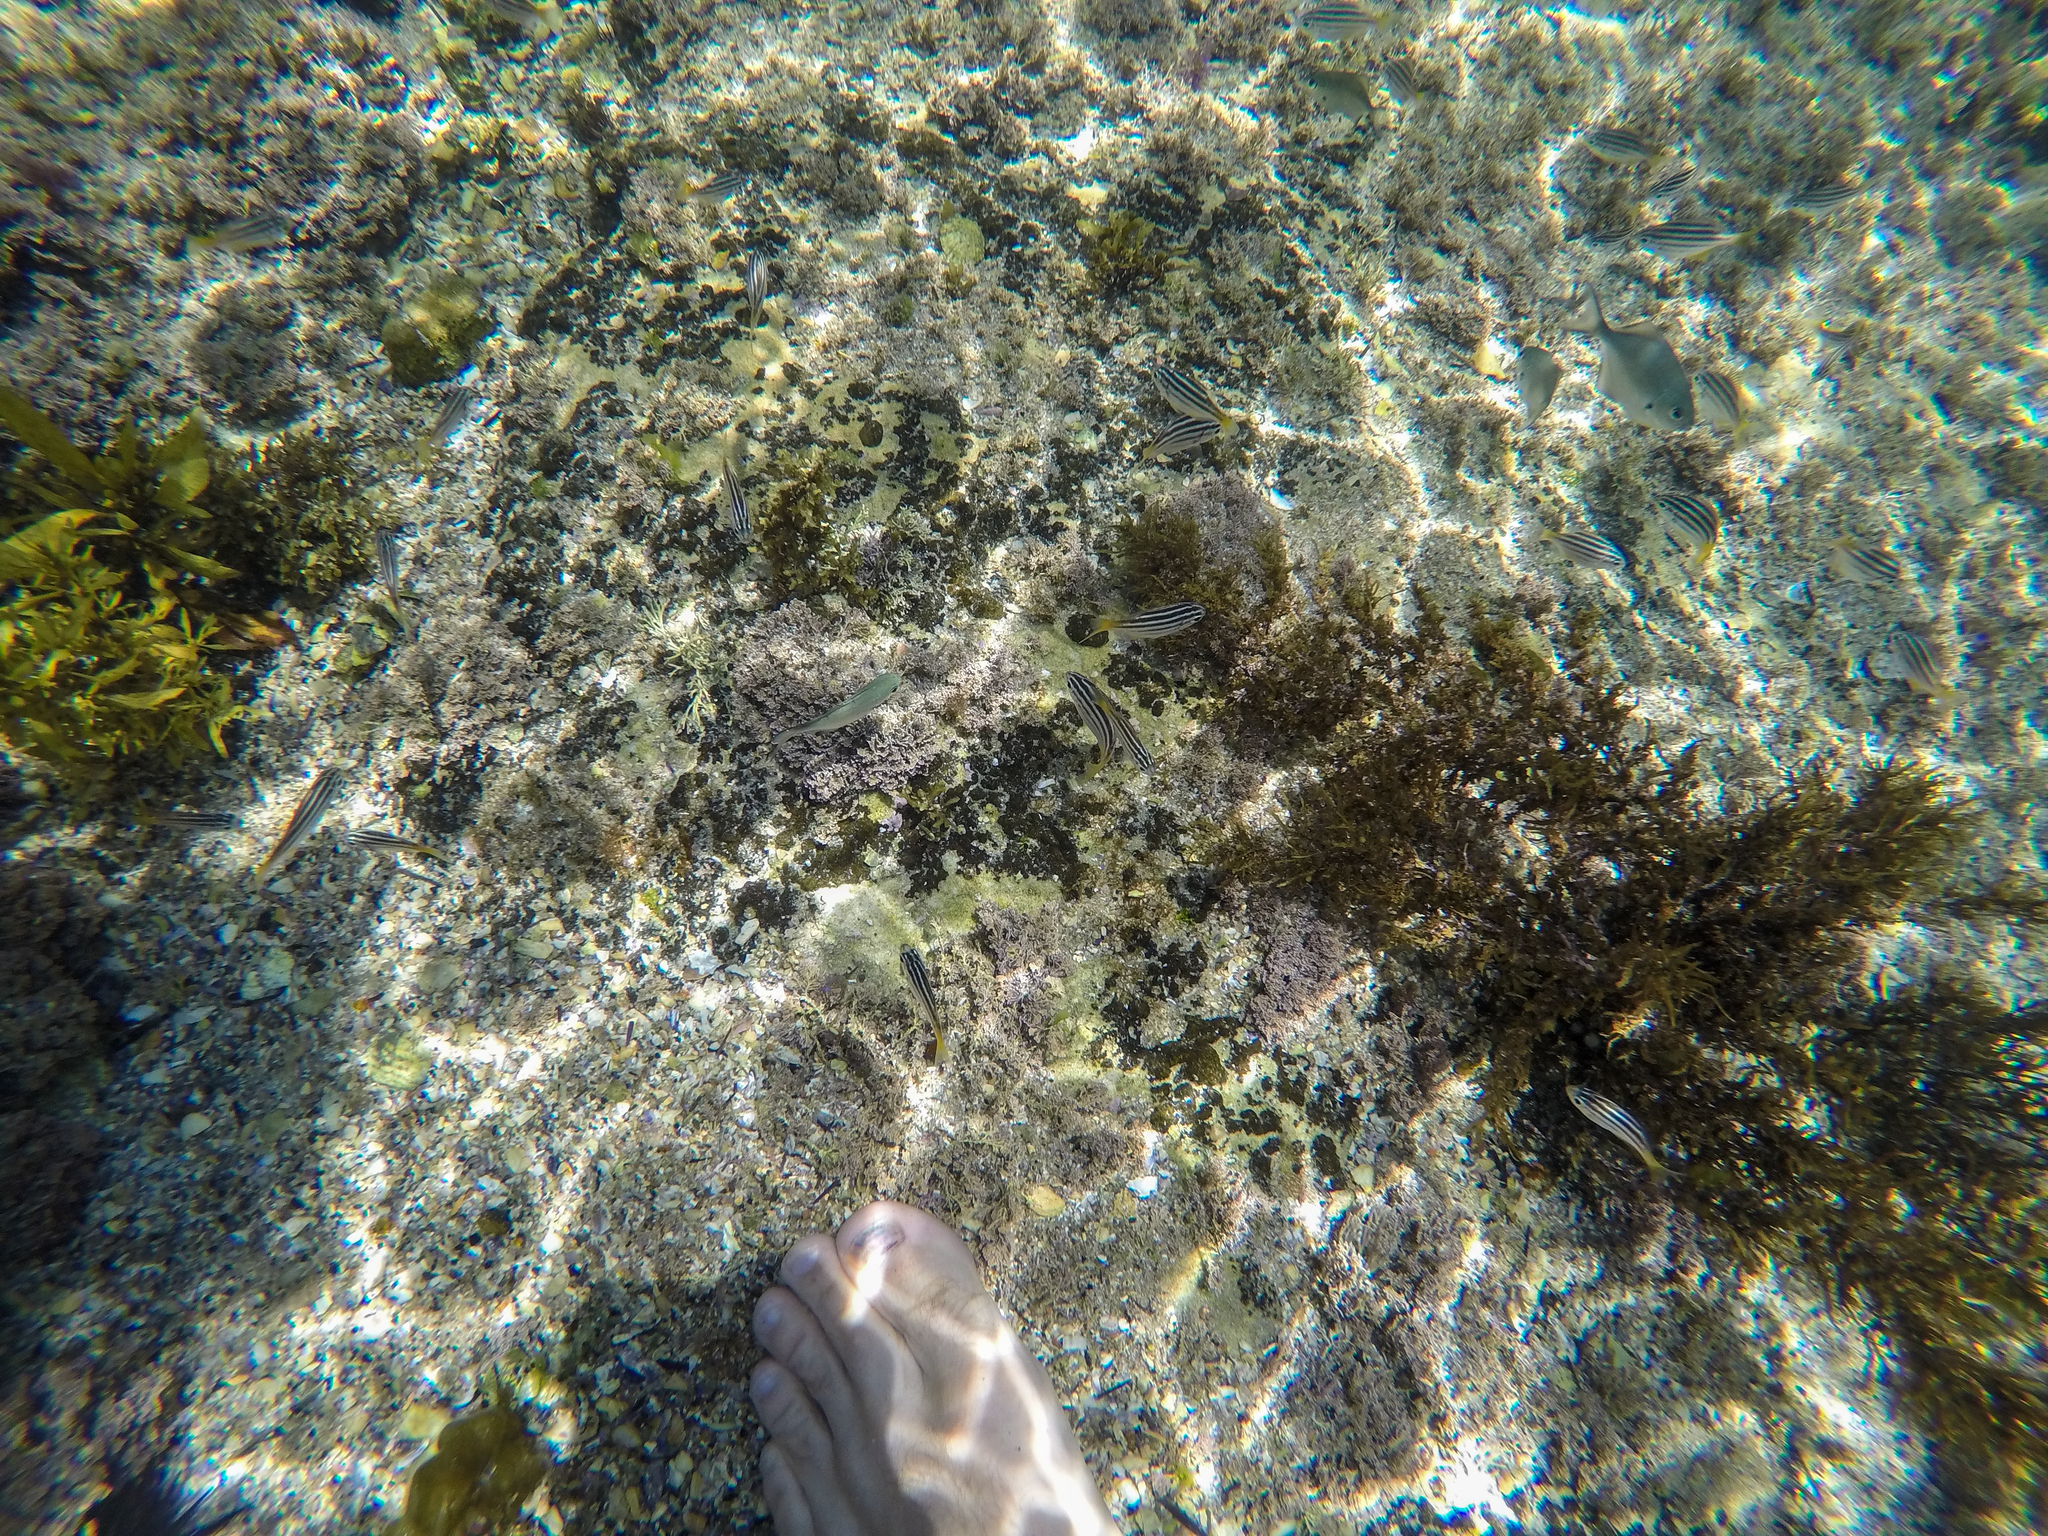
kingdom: Animalia
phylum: Chordata
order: Perciformes
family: Kyphosidae
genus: Atypichthys
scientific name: Atypichthys strigatus
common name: Australian mado
